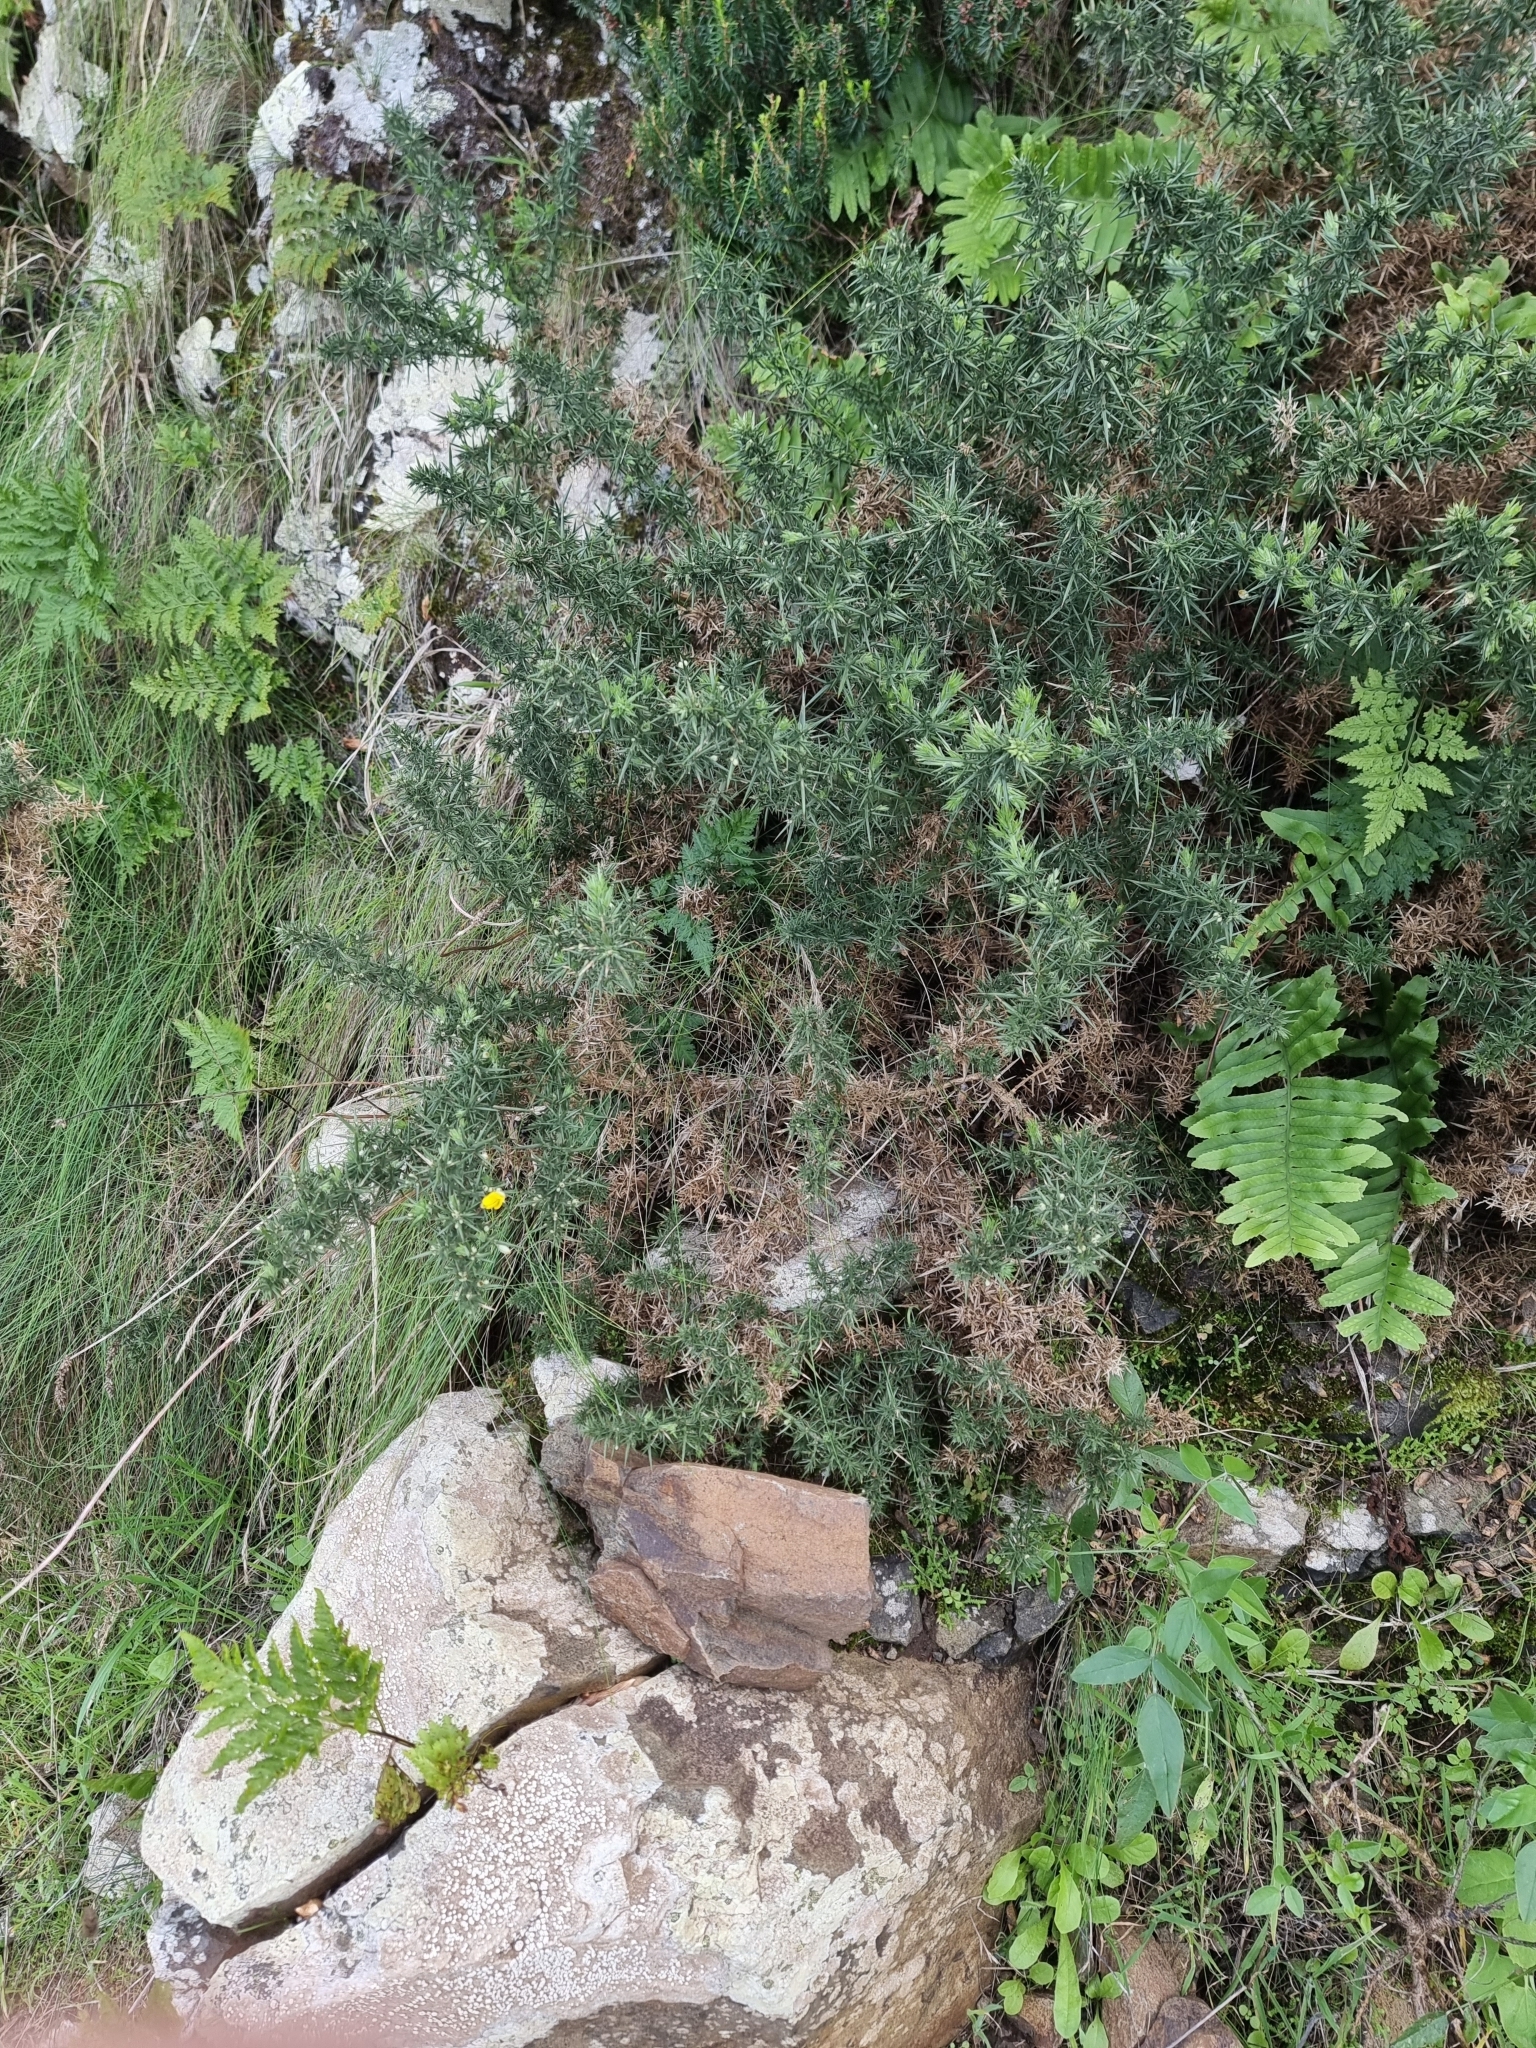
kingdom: Plantae
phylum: Tracheophyta
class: Magnoliopsida
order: Fabales
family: Fabaceae
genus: Ulex
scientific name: Ulex europaeus
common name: Common gorse
